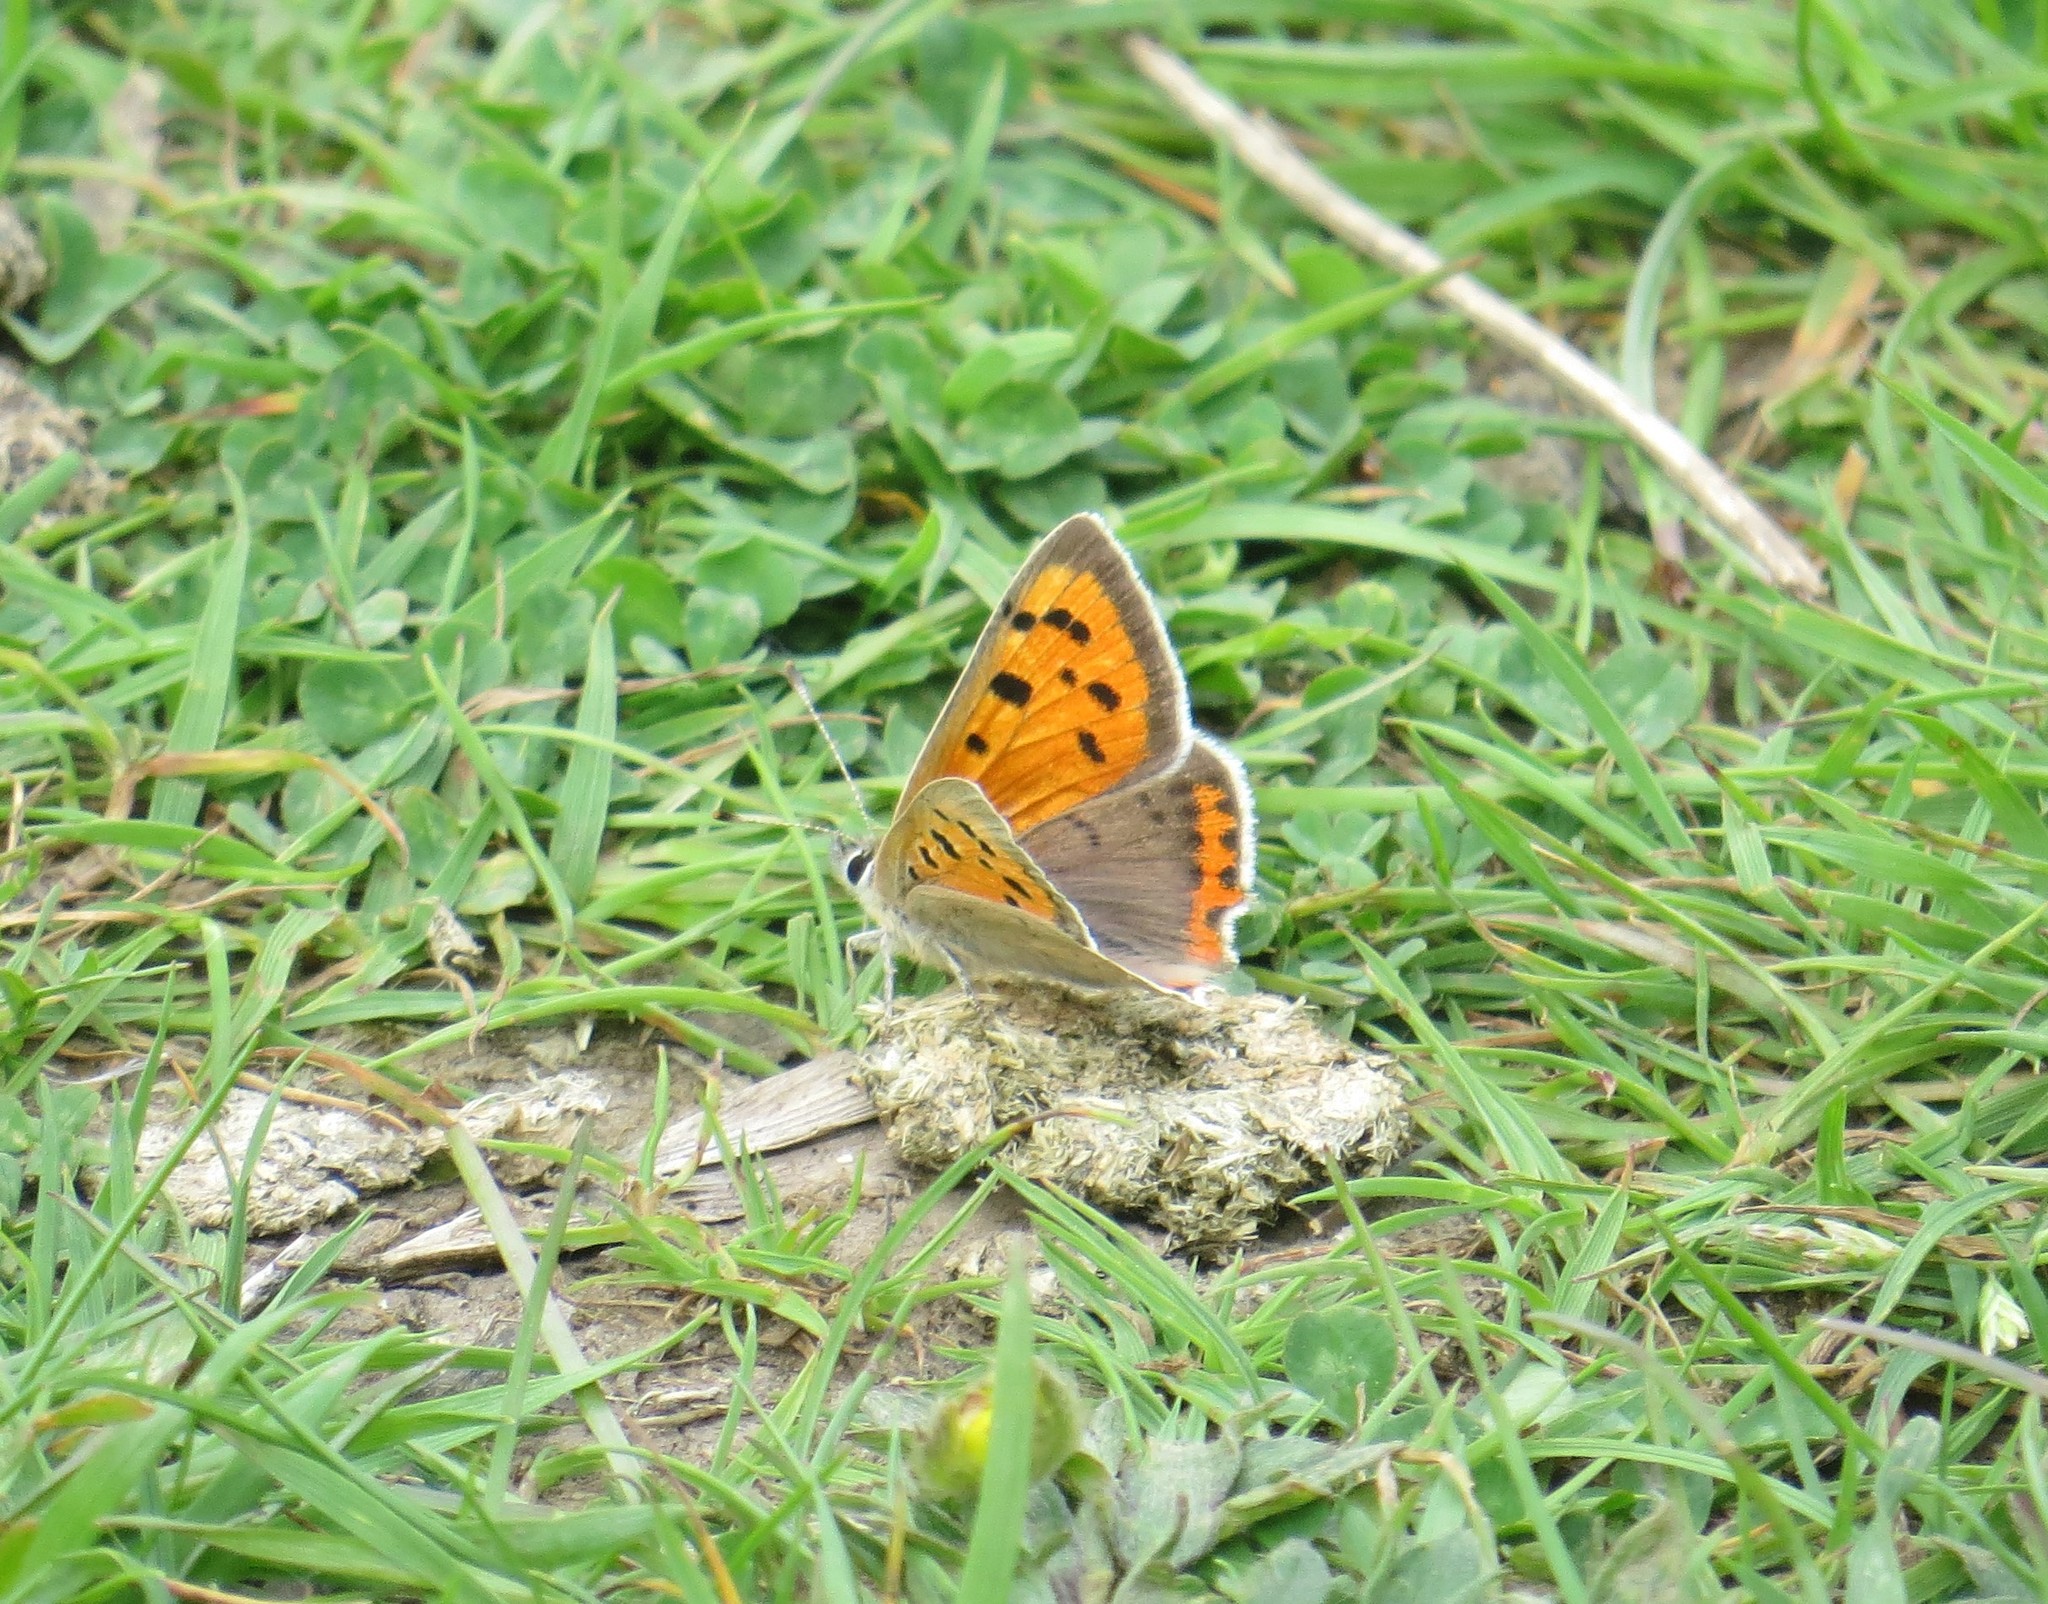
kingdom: Animalia
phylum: Arthropoda
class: Insecta
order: Lepidoptera
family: Lycaenidae
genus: Lycaena
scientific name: Lycaena phlaeas
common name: Small copper
